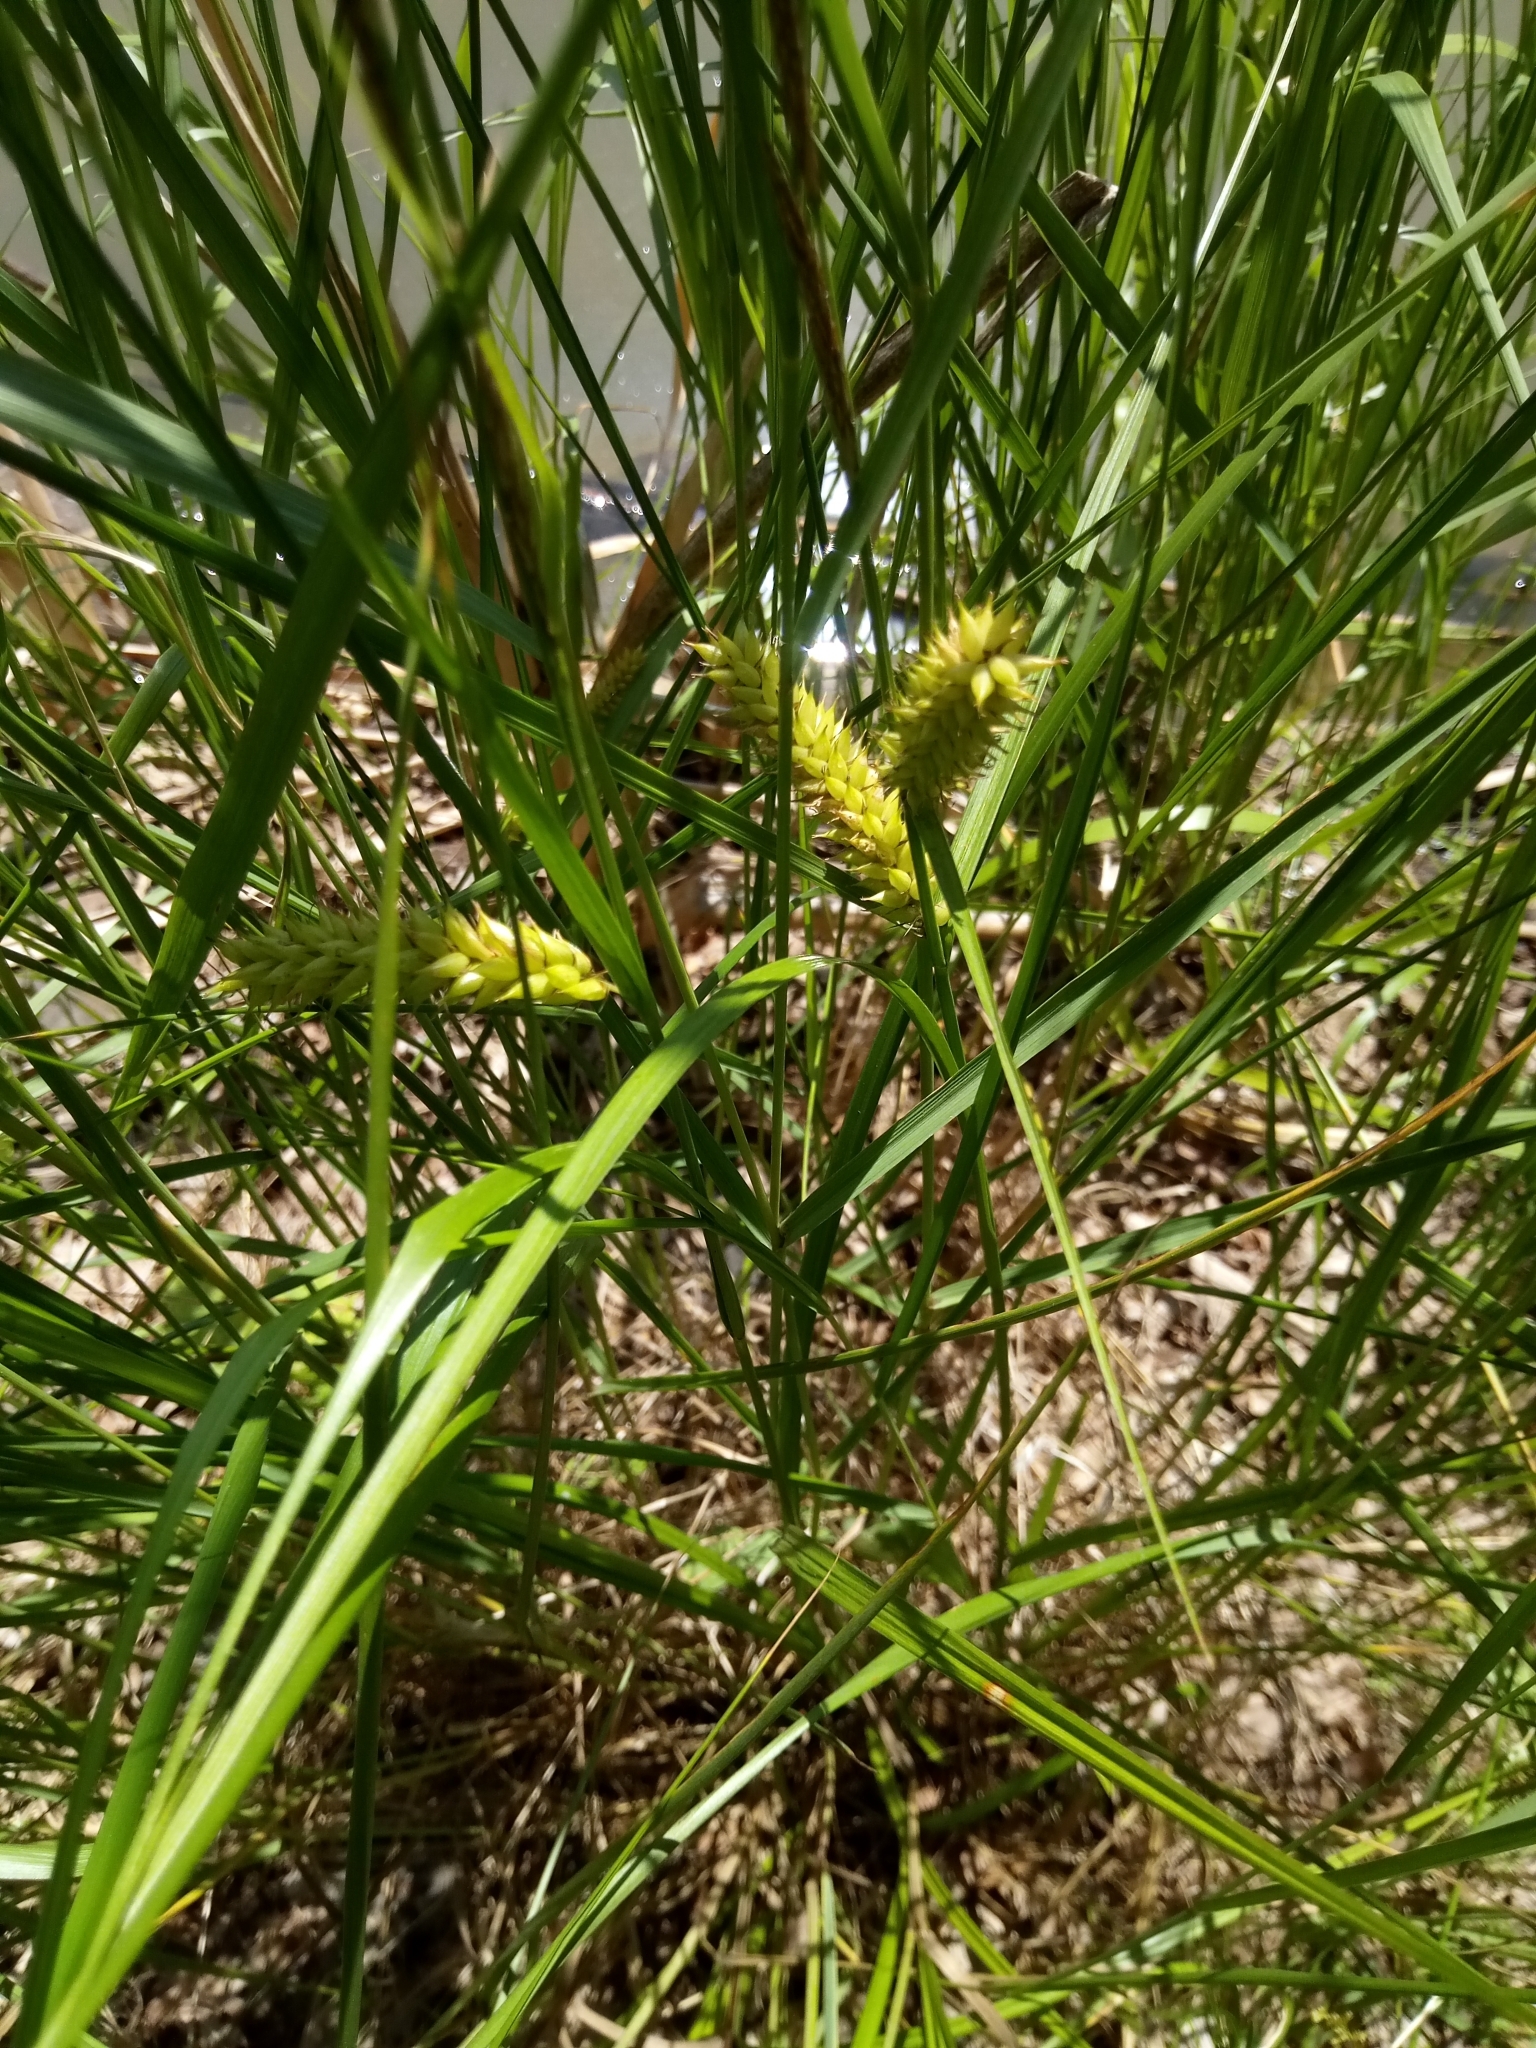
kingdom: Plantae
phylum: Tracheophyta
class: Liliopsida
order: Poales
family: Cyperaceae
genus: Carex
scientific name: Carex vesicaria
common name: Bladder-sedge
